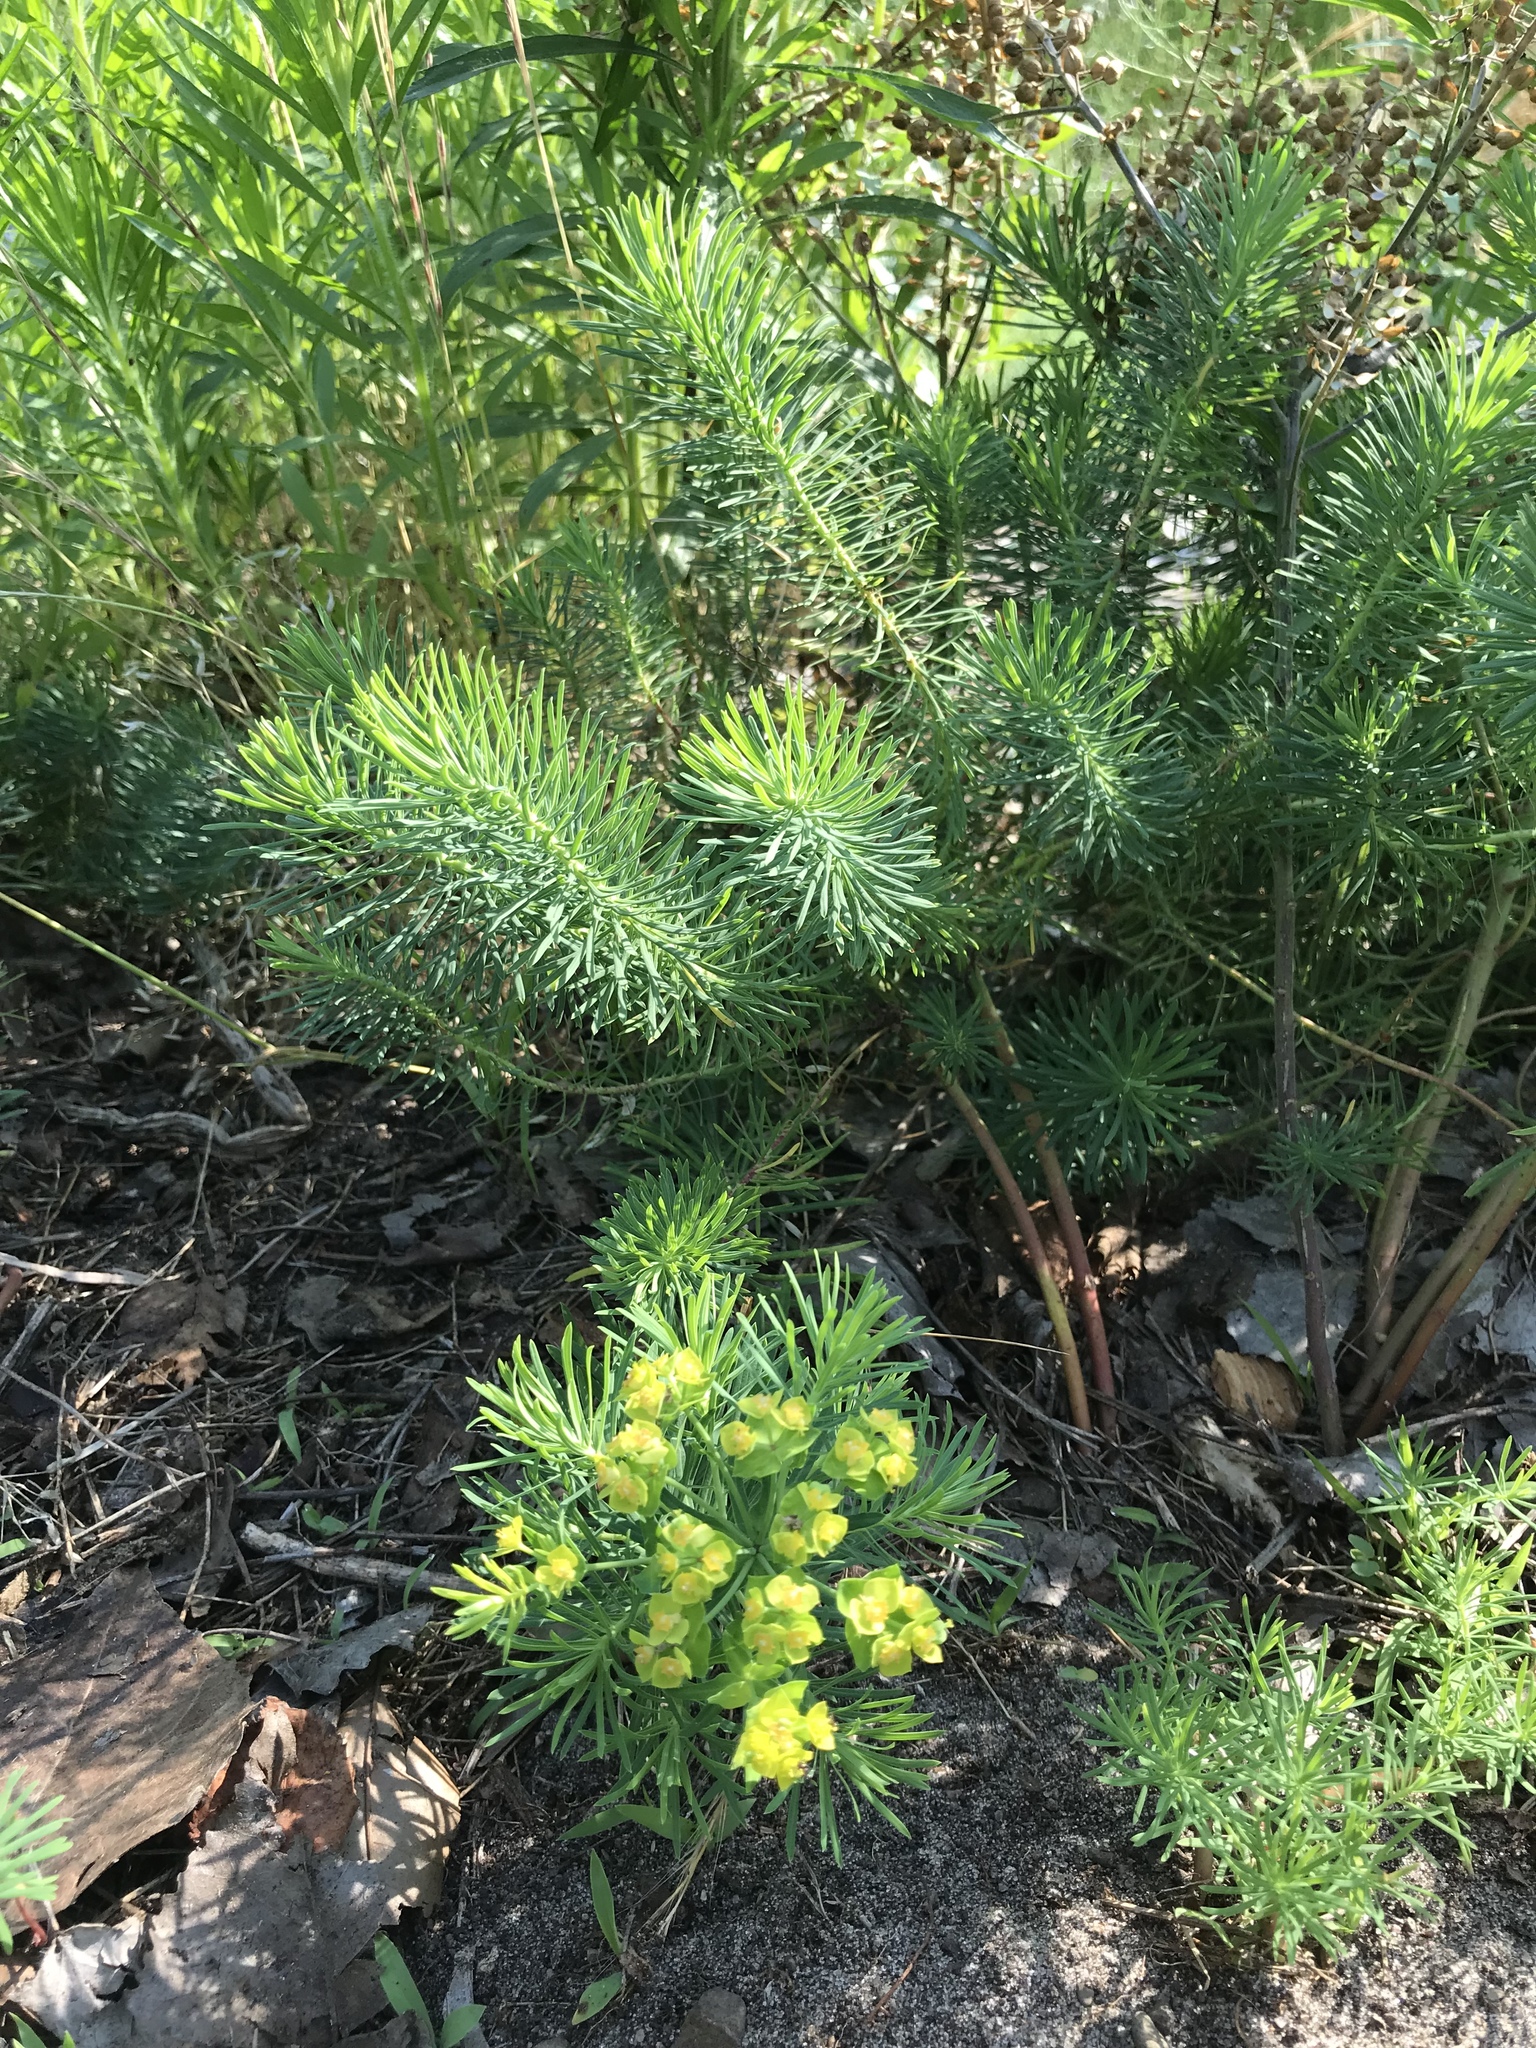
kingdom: Plantae
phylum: Tracheophyta
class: Magnoliopsida
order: Malpighiales
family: Euphorbiaceae
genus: Euphorbia
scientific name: Euphorbia cyparissias
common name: Cypress spurge
